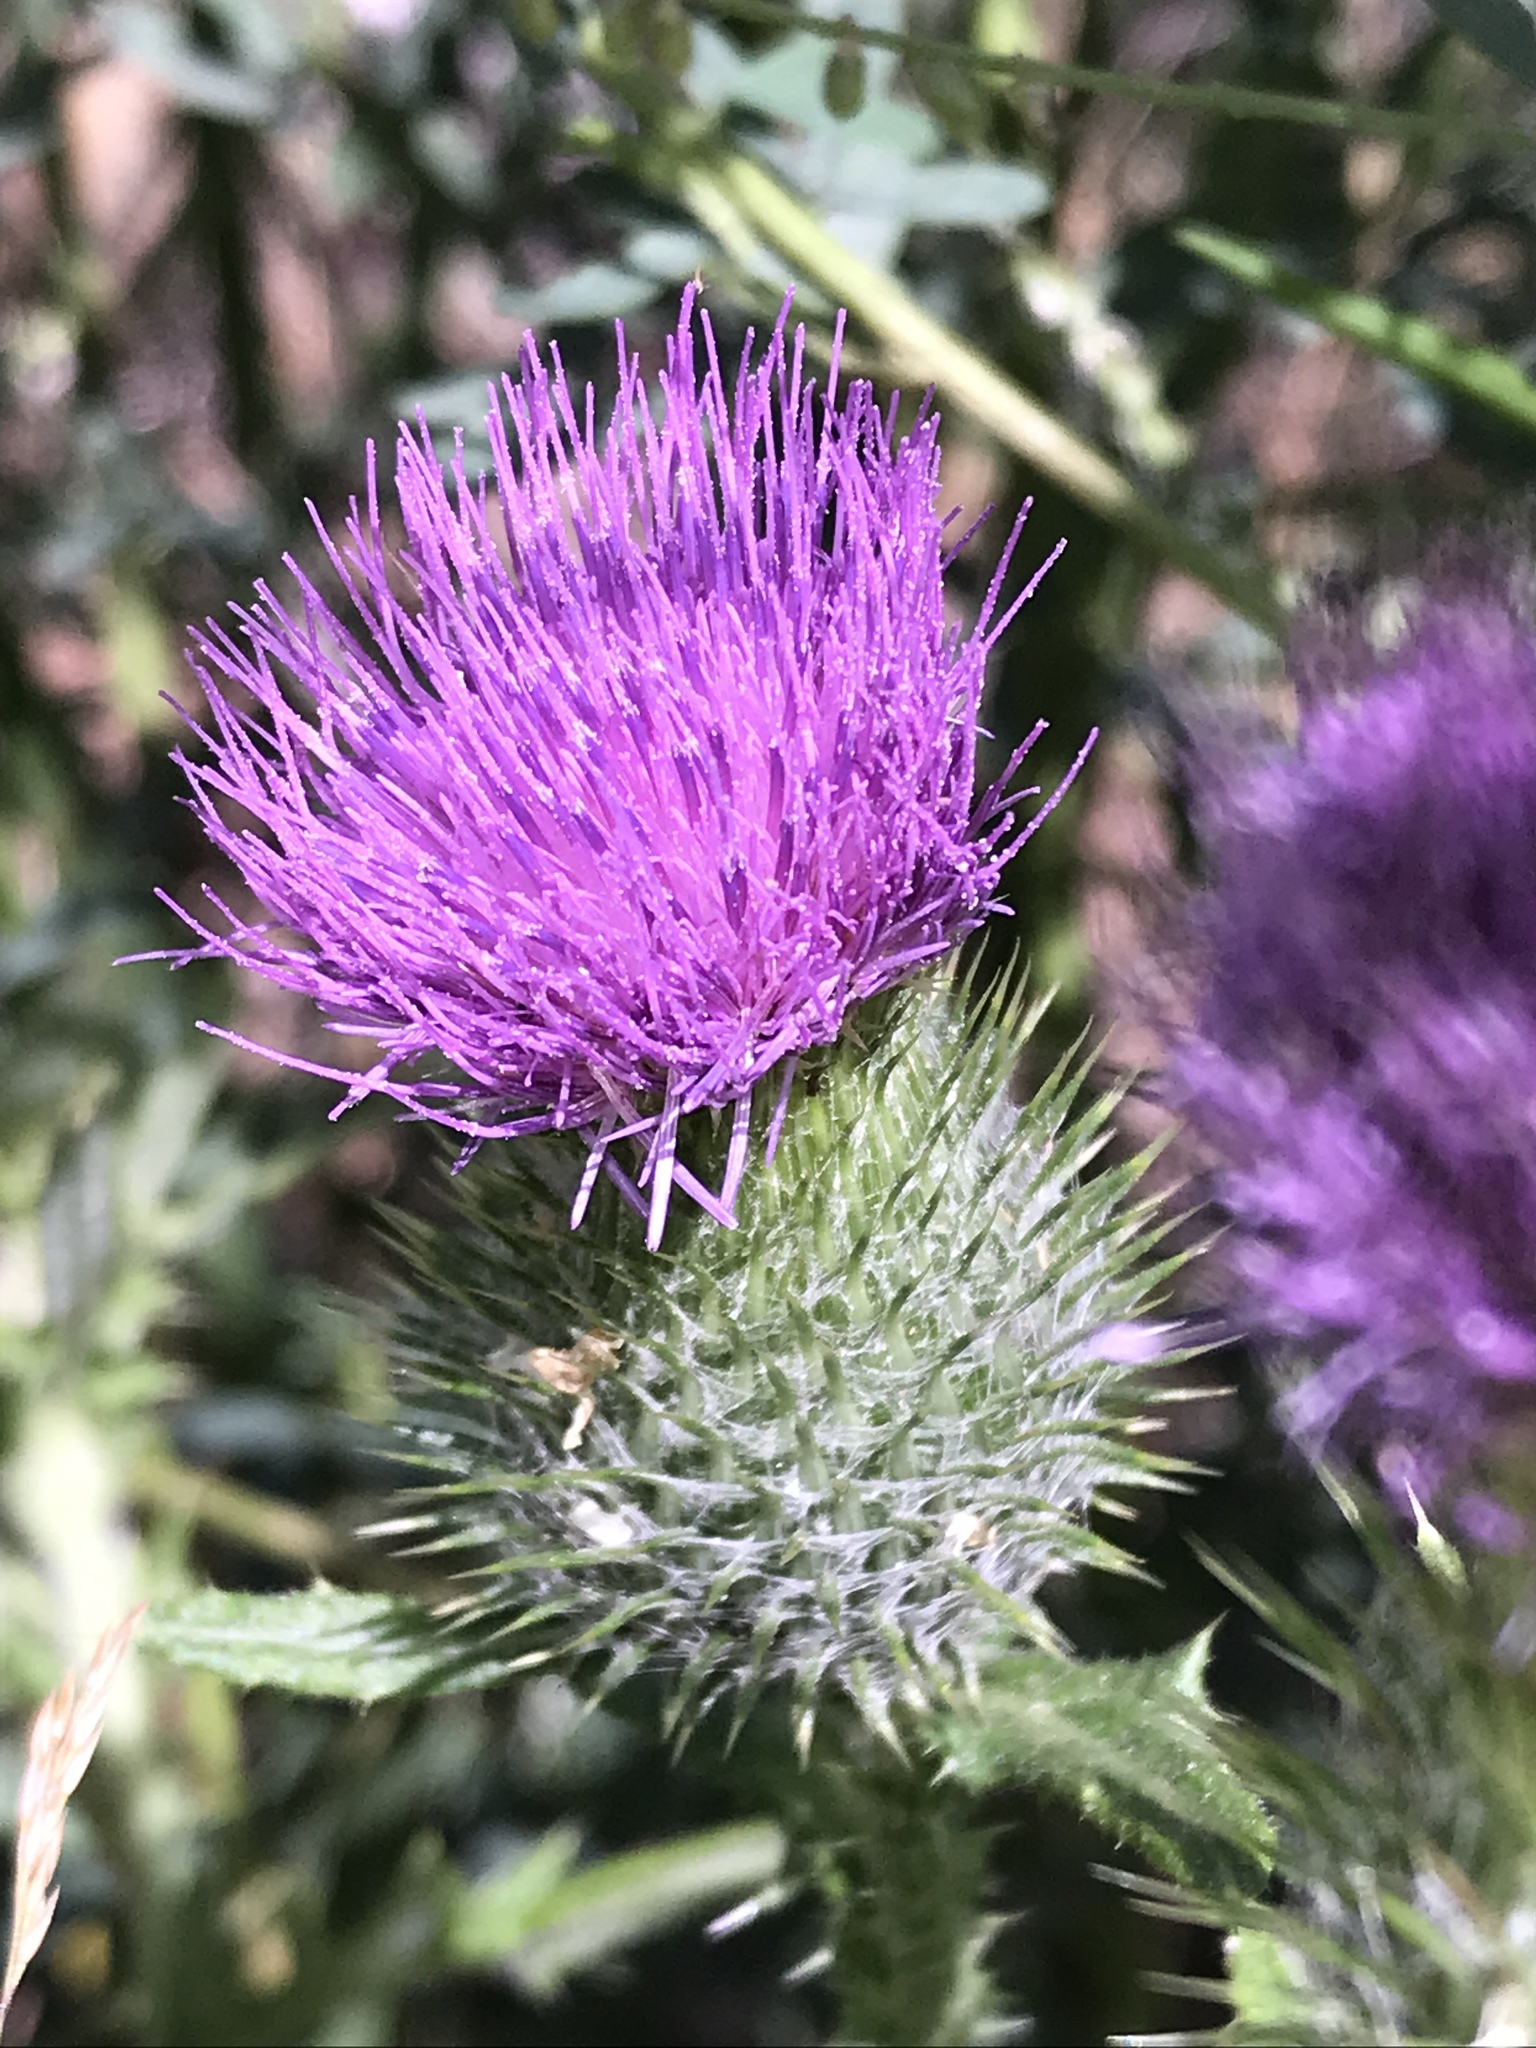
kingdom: Plantae
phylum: Tracheophyta
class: Magnoliopsida
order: Asterales
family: Asteraceae
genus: Cirsium
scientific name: Cirsium vulgare
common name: Bull thistle
